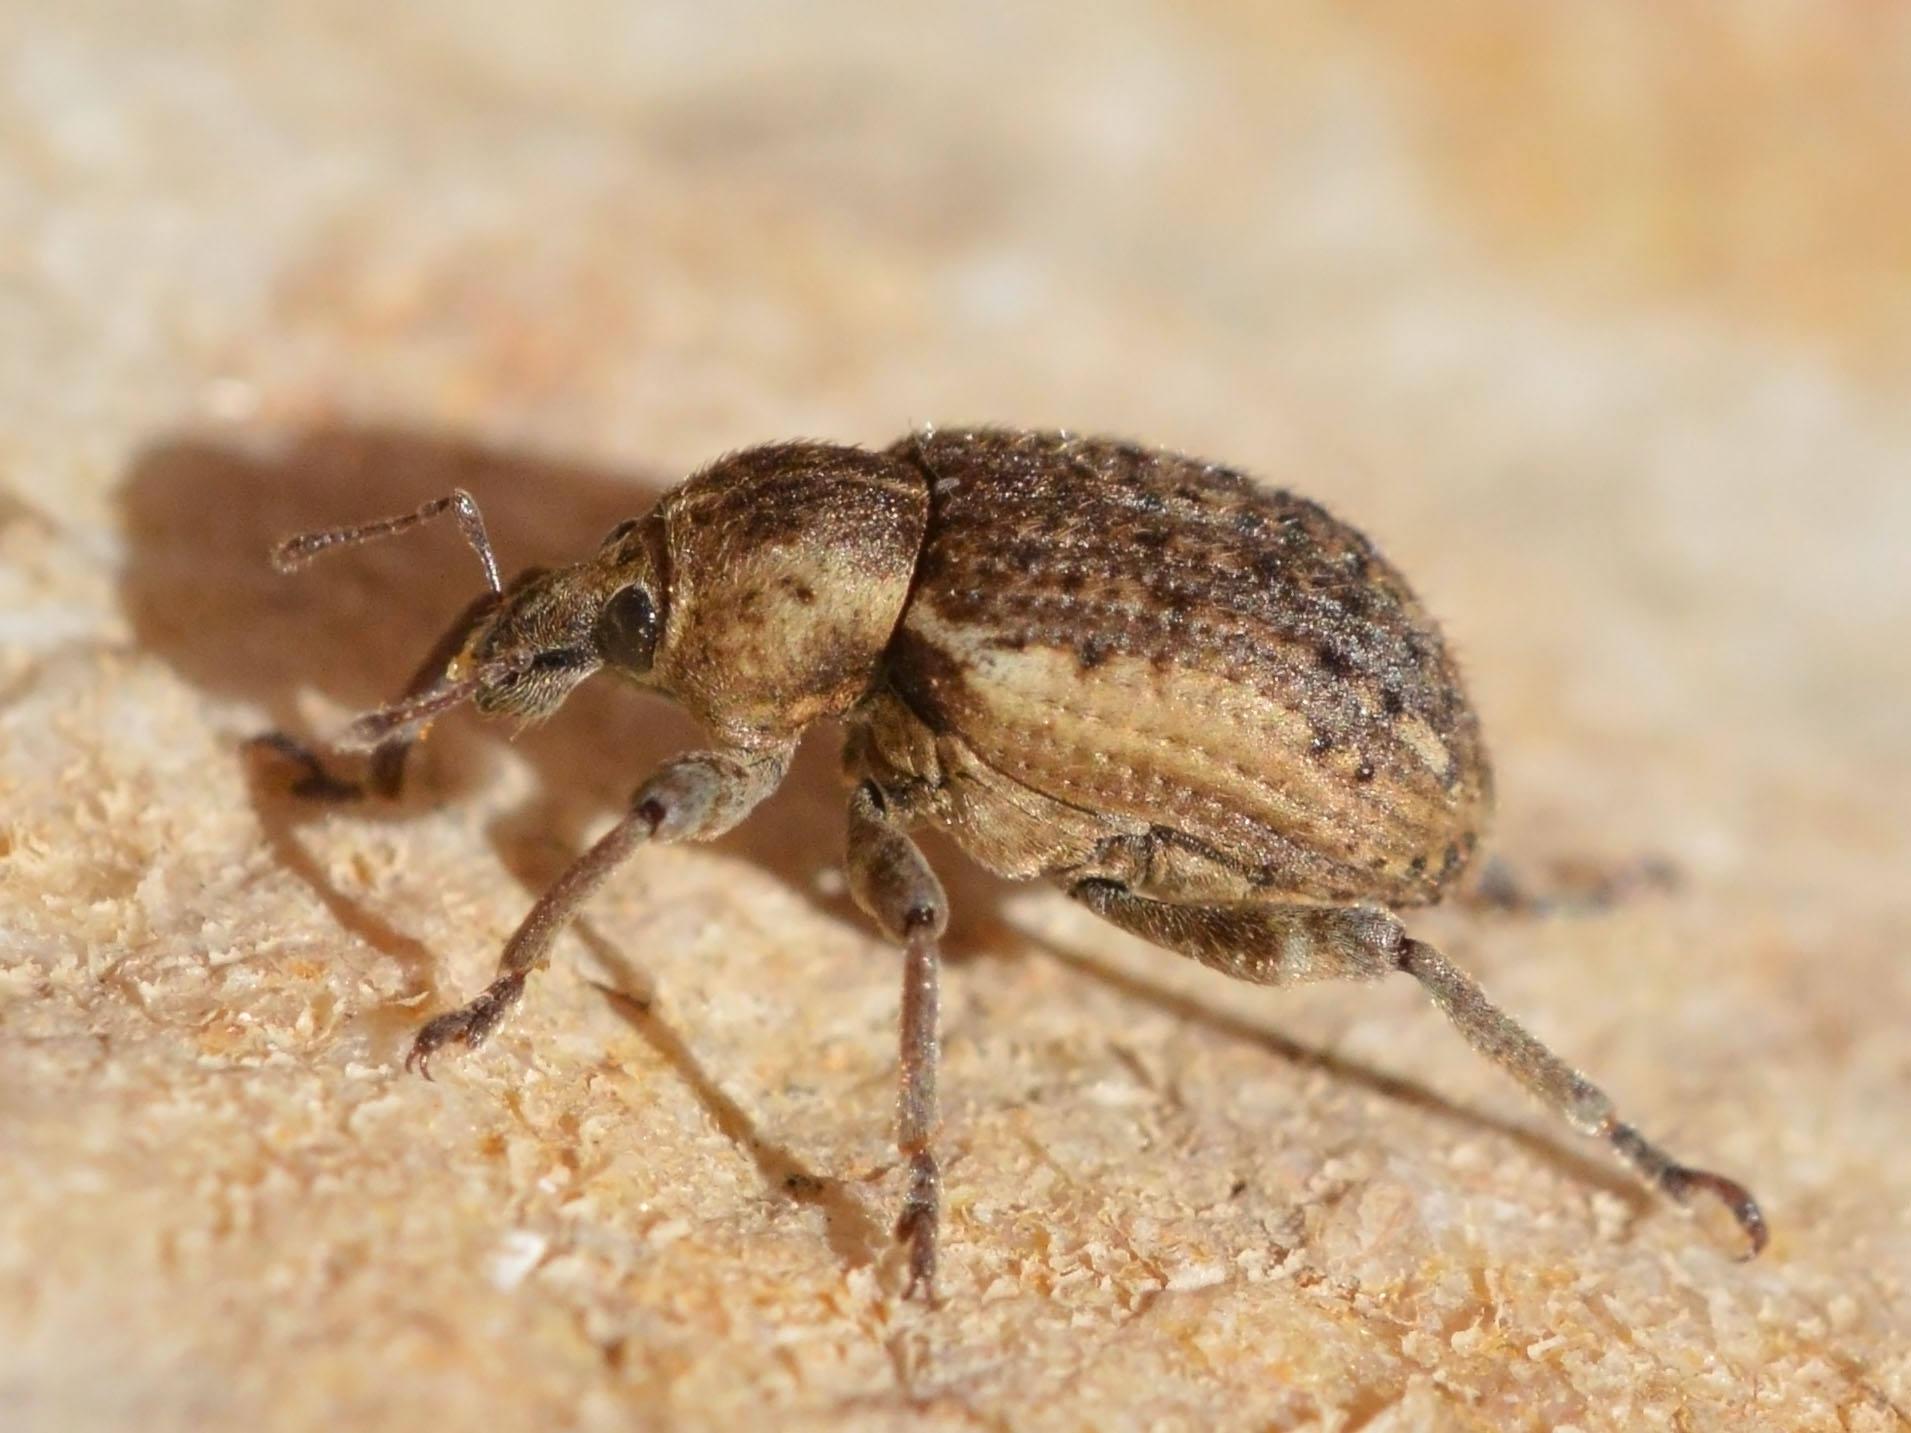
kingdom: Animalia
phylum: Arthropoda
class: Insecta
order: Coleoptera
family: Curculionidae
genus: Brachypera
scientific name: Brachypera zoilus
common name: Clover leaf weevil
